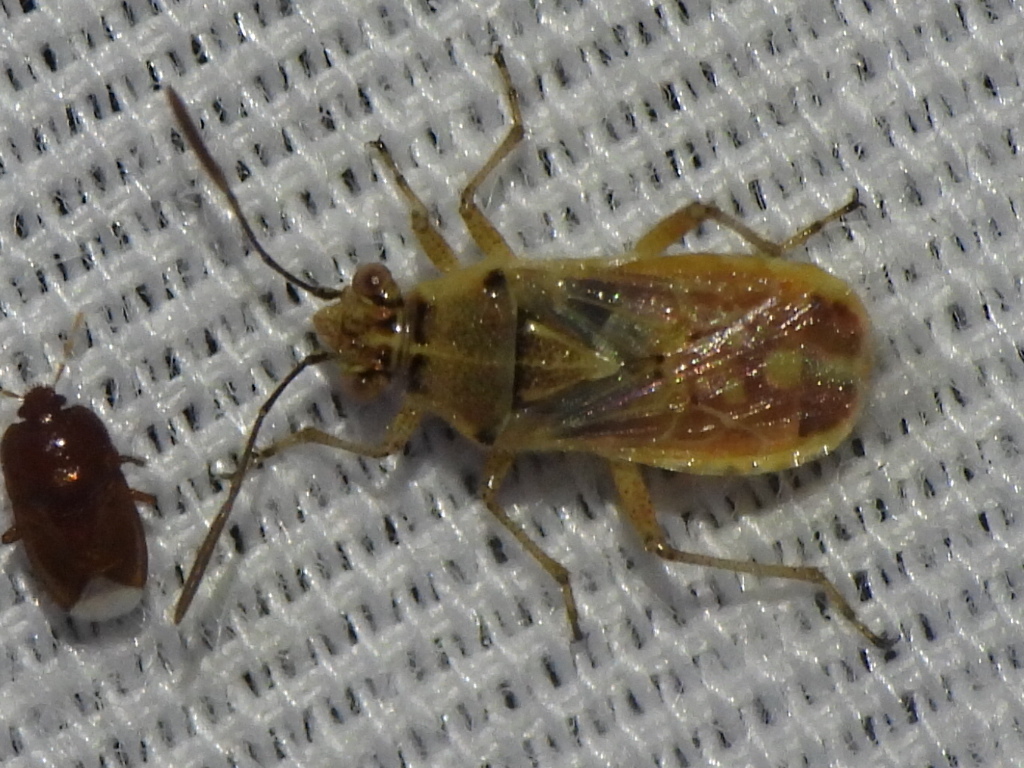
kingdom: Animalia
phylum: Arthropoda
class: Insecta
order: Hemiptera
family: Rhopalidae
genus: Liorhyssus
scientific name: Liorhyssus hyalinus
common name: Scentless plant bug
